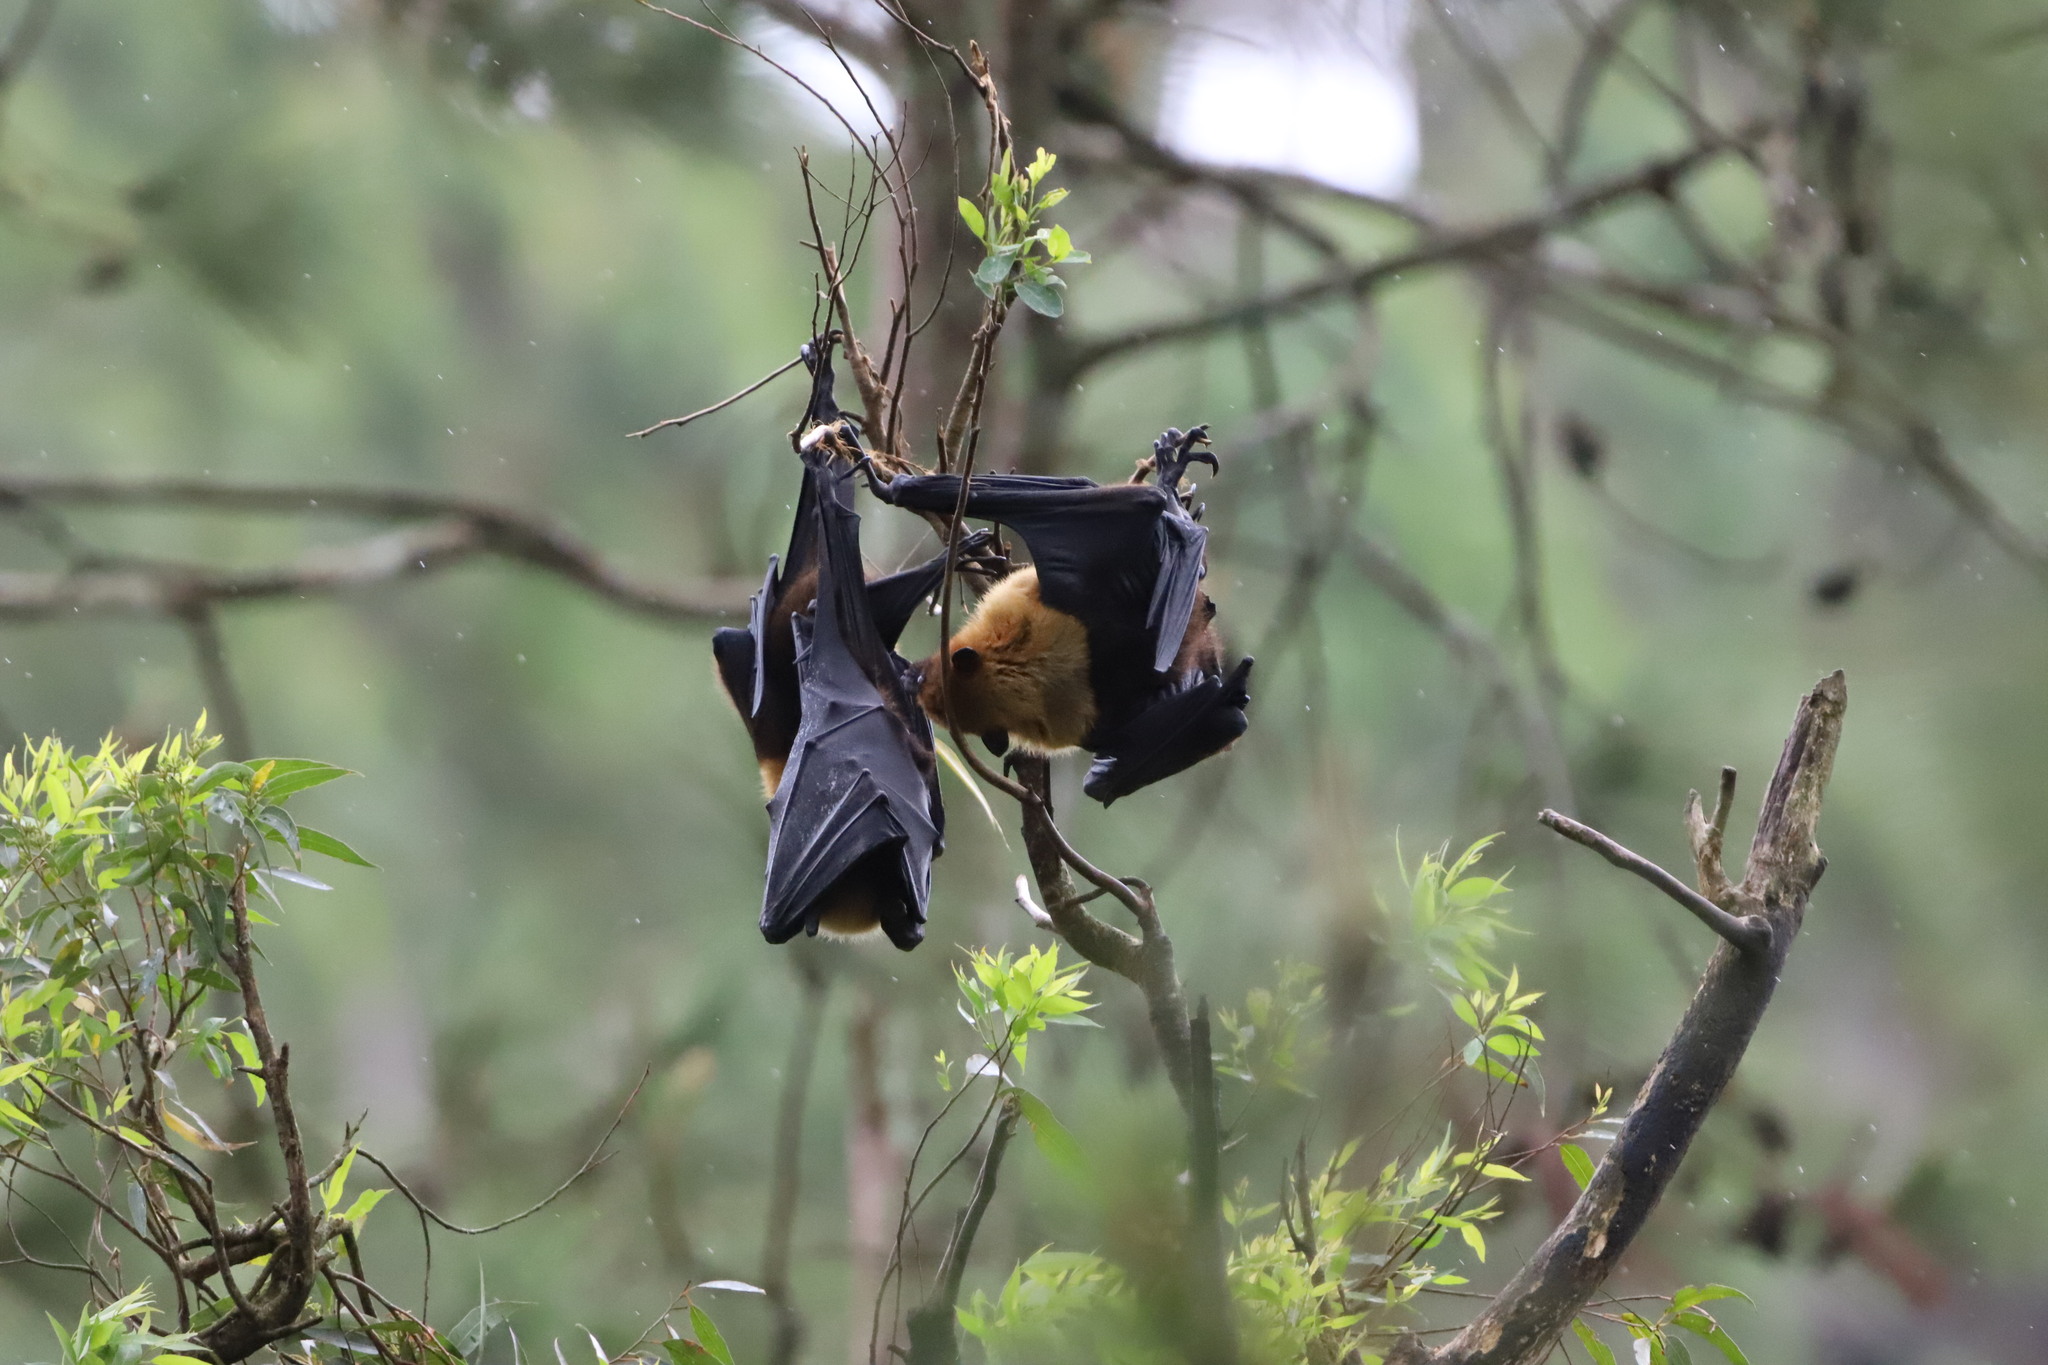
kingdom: Animalia
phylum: Chordata
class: Mammalia
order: Chiroptera
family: Pteropodidae
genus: Pteropus
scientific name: Pteropus vampyrus
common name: Large flying fox
